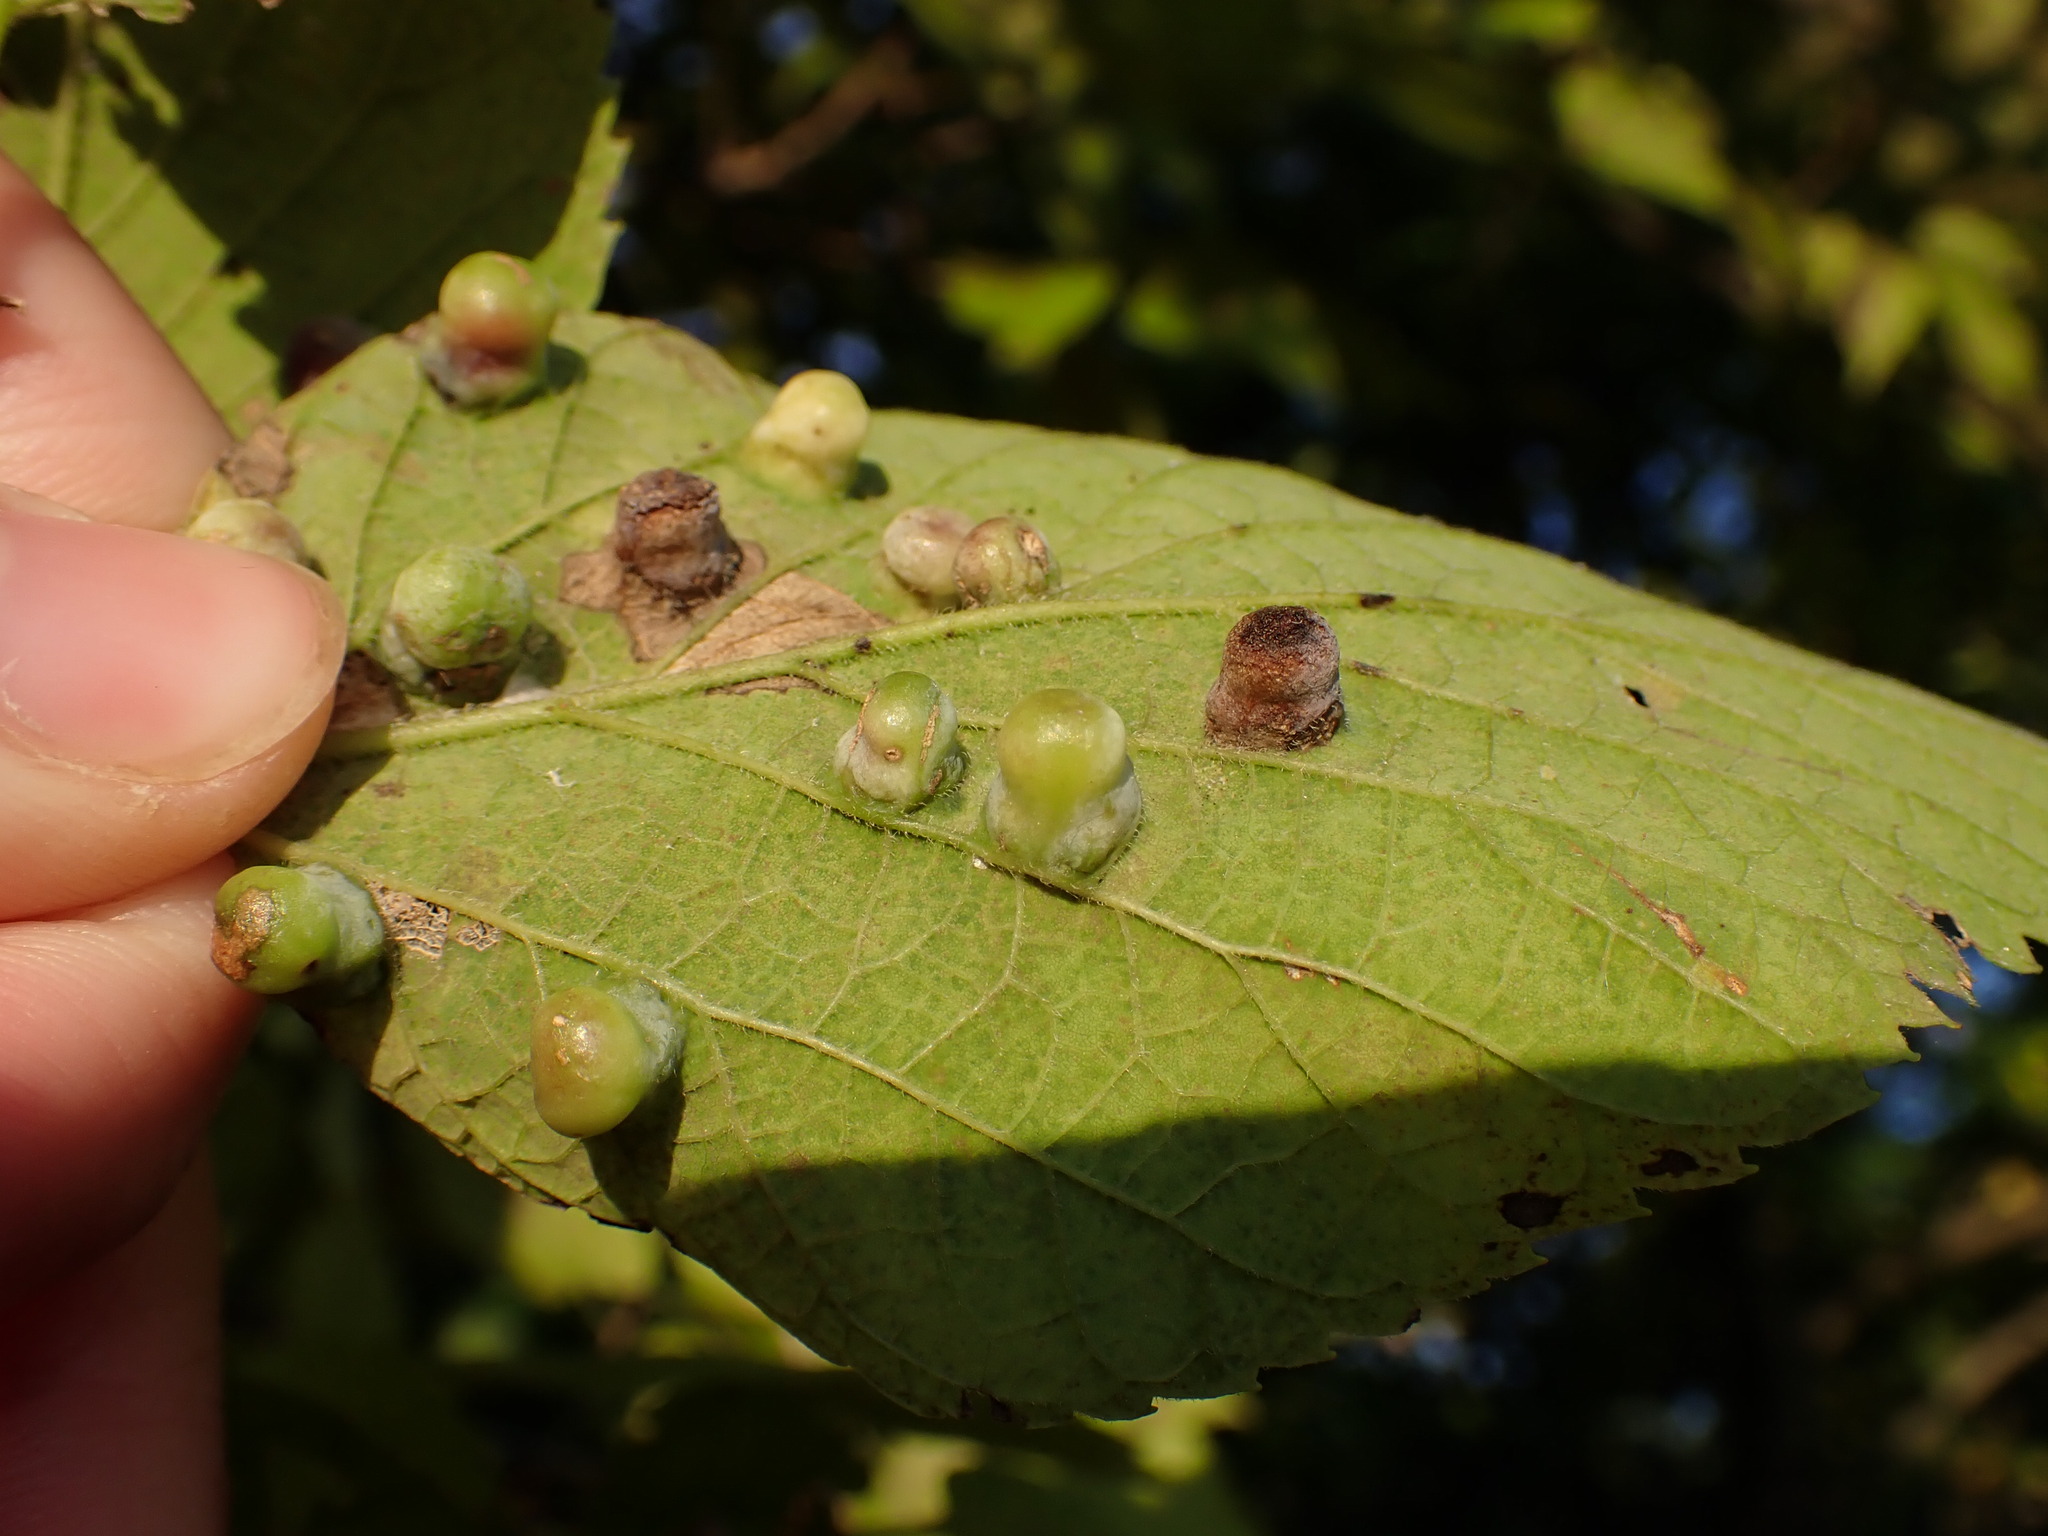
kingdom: Animalia
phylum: Arthropoda
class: Insecta
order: Hemiptera
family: Aphalaridae
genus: Pachypsylla
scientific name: Pachypsylla celtidismamma
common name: Hackberry nipplegall psyllid
